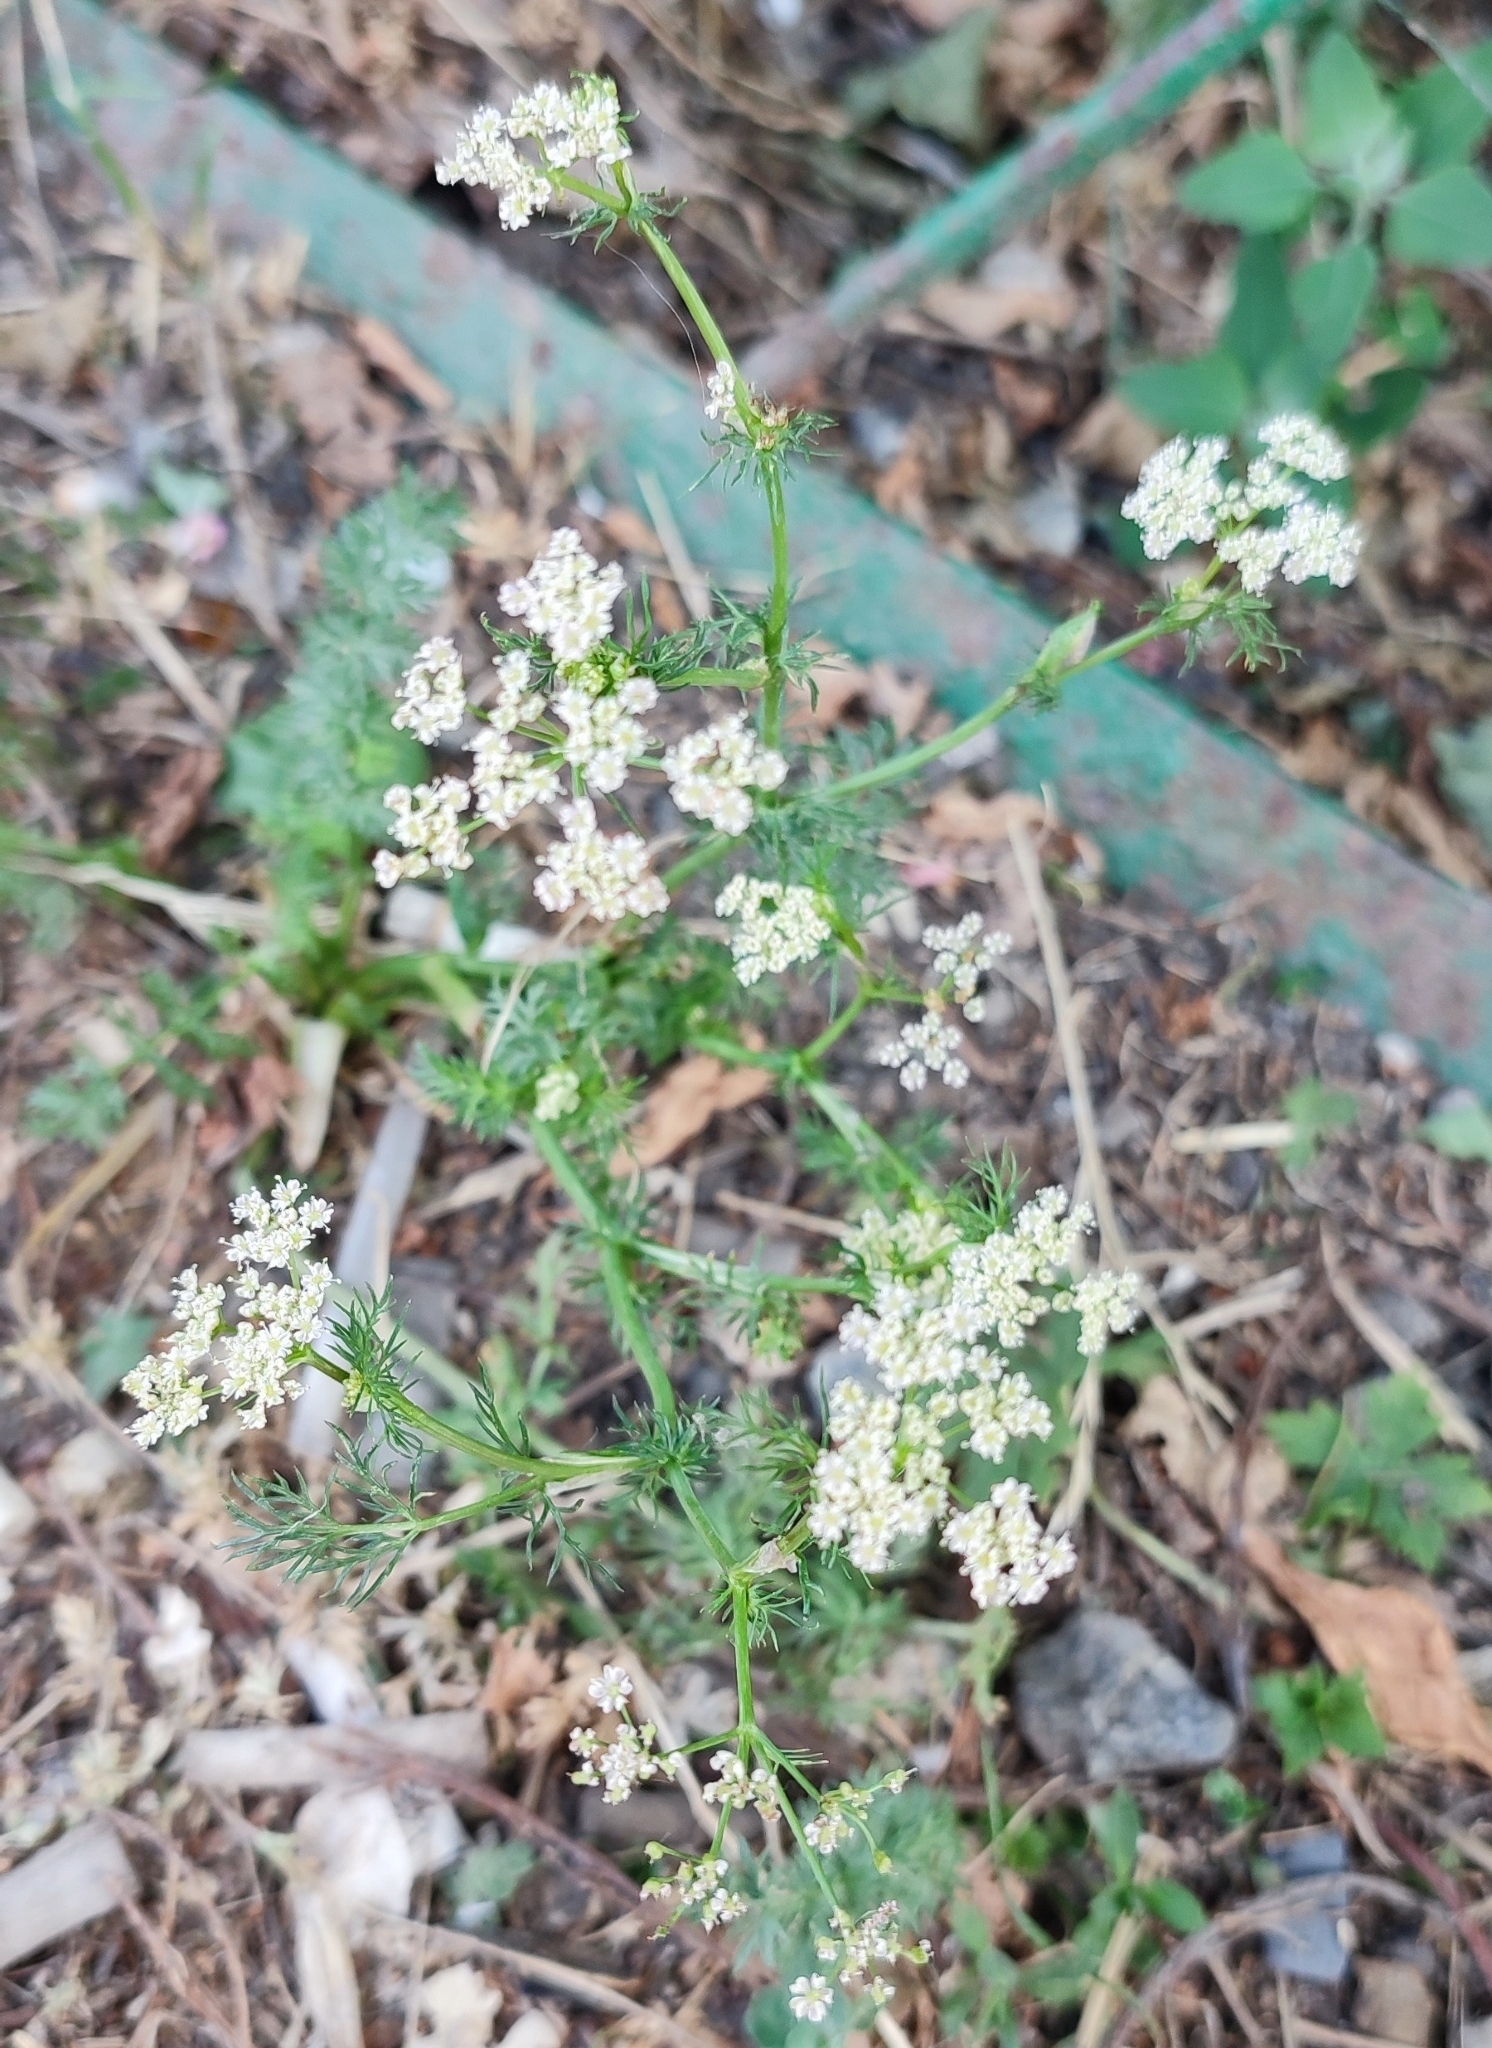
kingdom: Plantae
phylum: Tracheophyta
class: Magnoliopsida
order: Apiales
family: Apiaceae
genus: Carum
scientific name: Carum carvi
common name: Caraway
